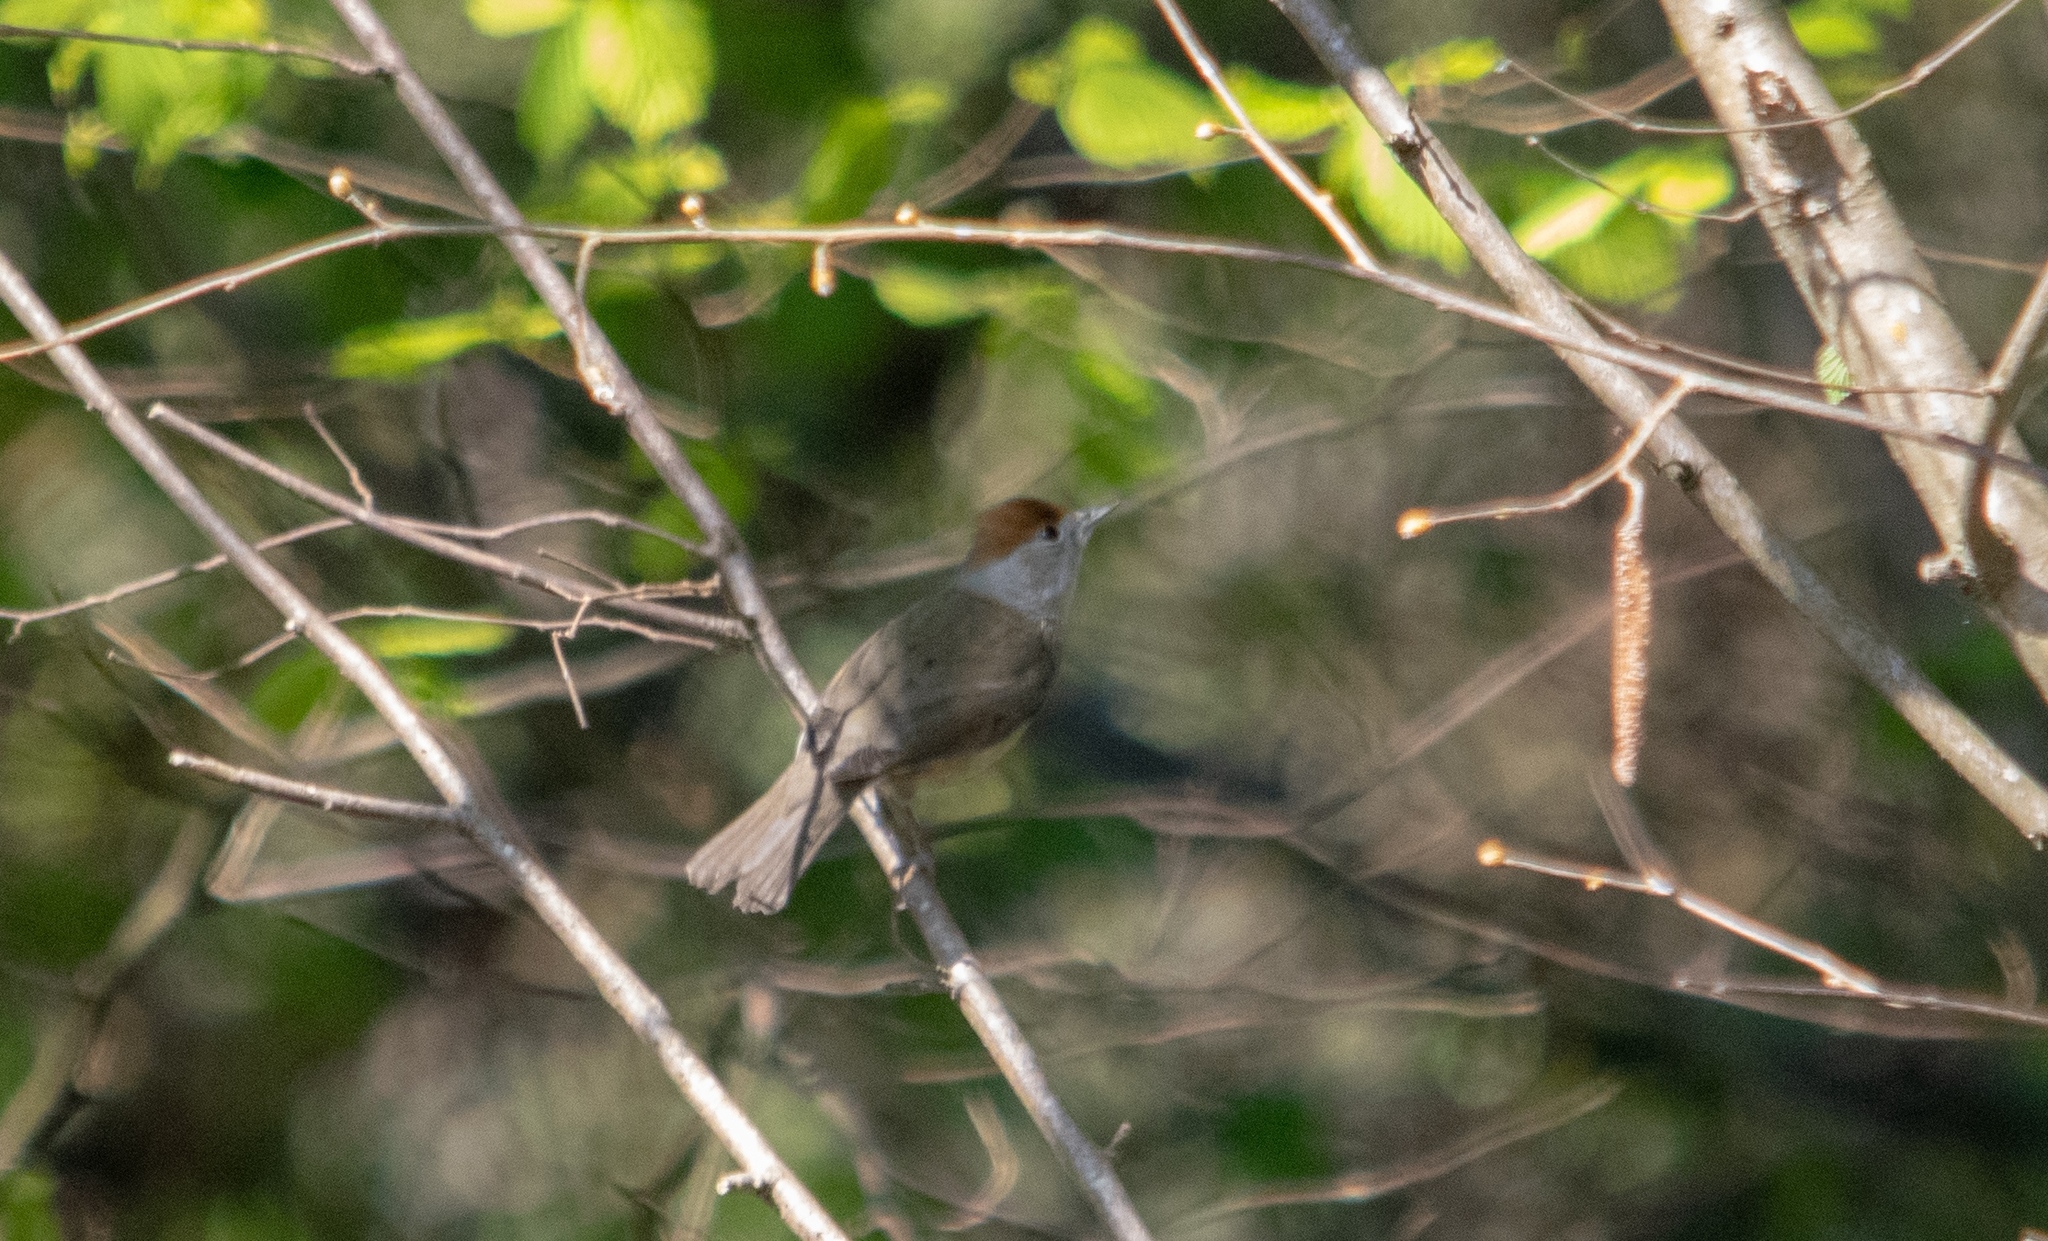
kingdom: Animalia
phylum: Chordata
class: Aves
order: Passeriformes
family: Sylviidae
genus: Sylvia
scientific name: Sylvia atricapilla
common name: Eurasian blackcap
